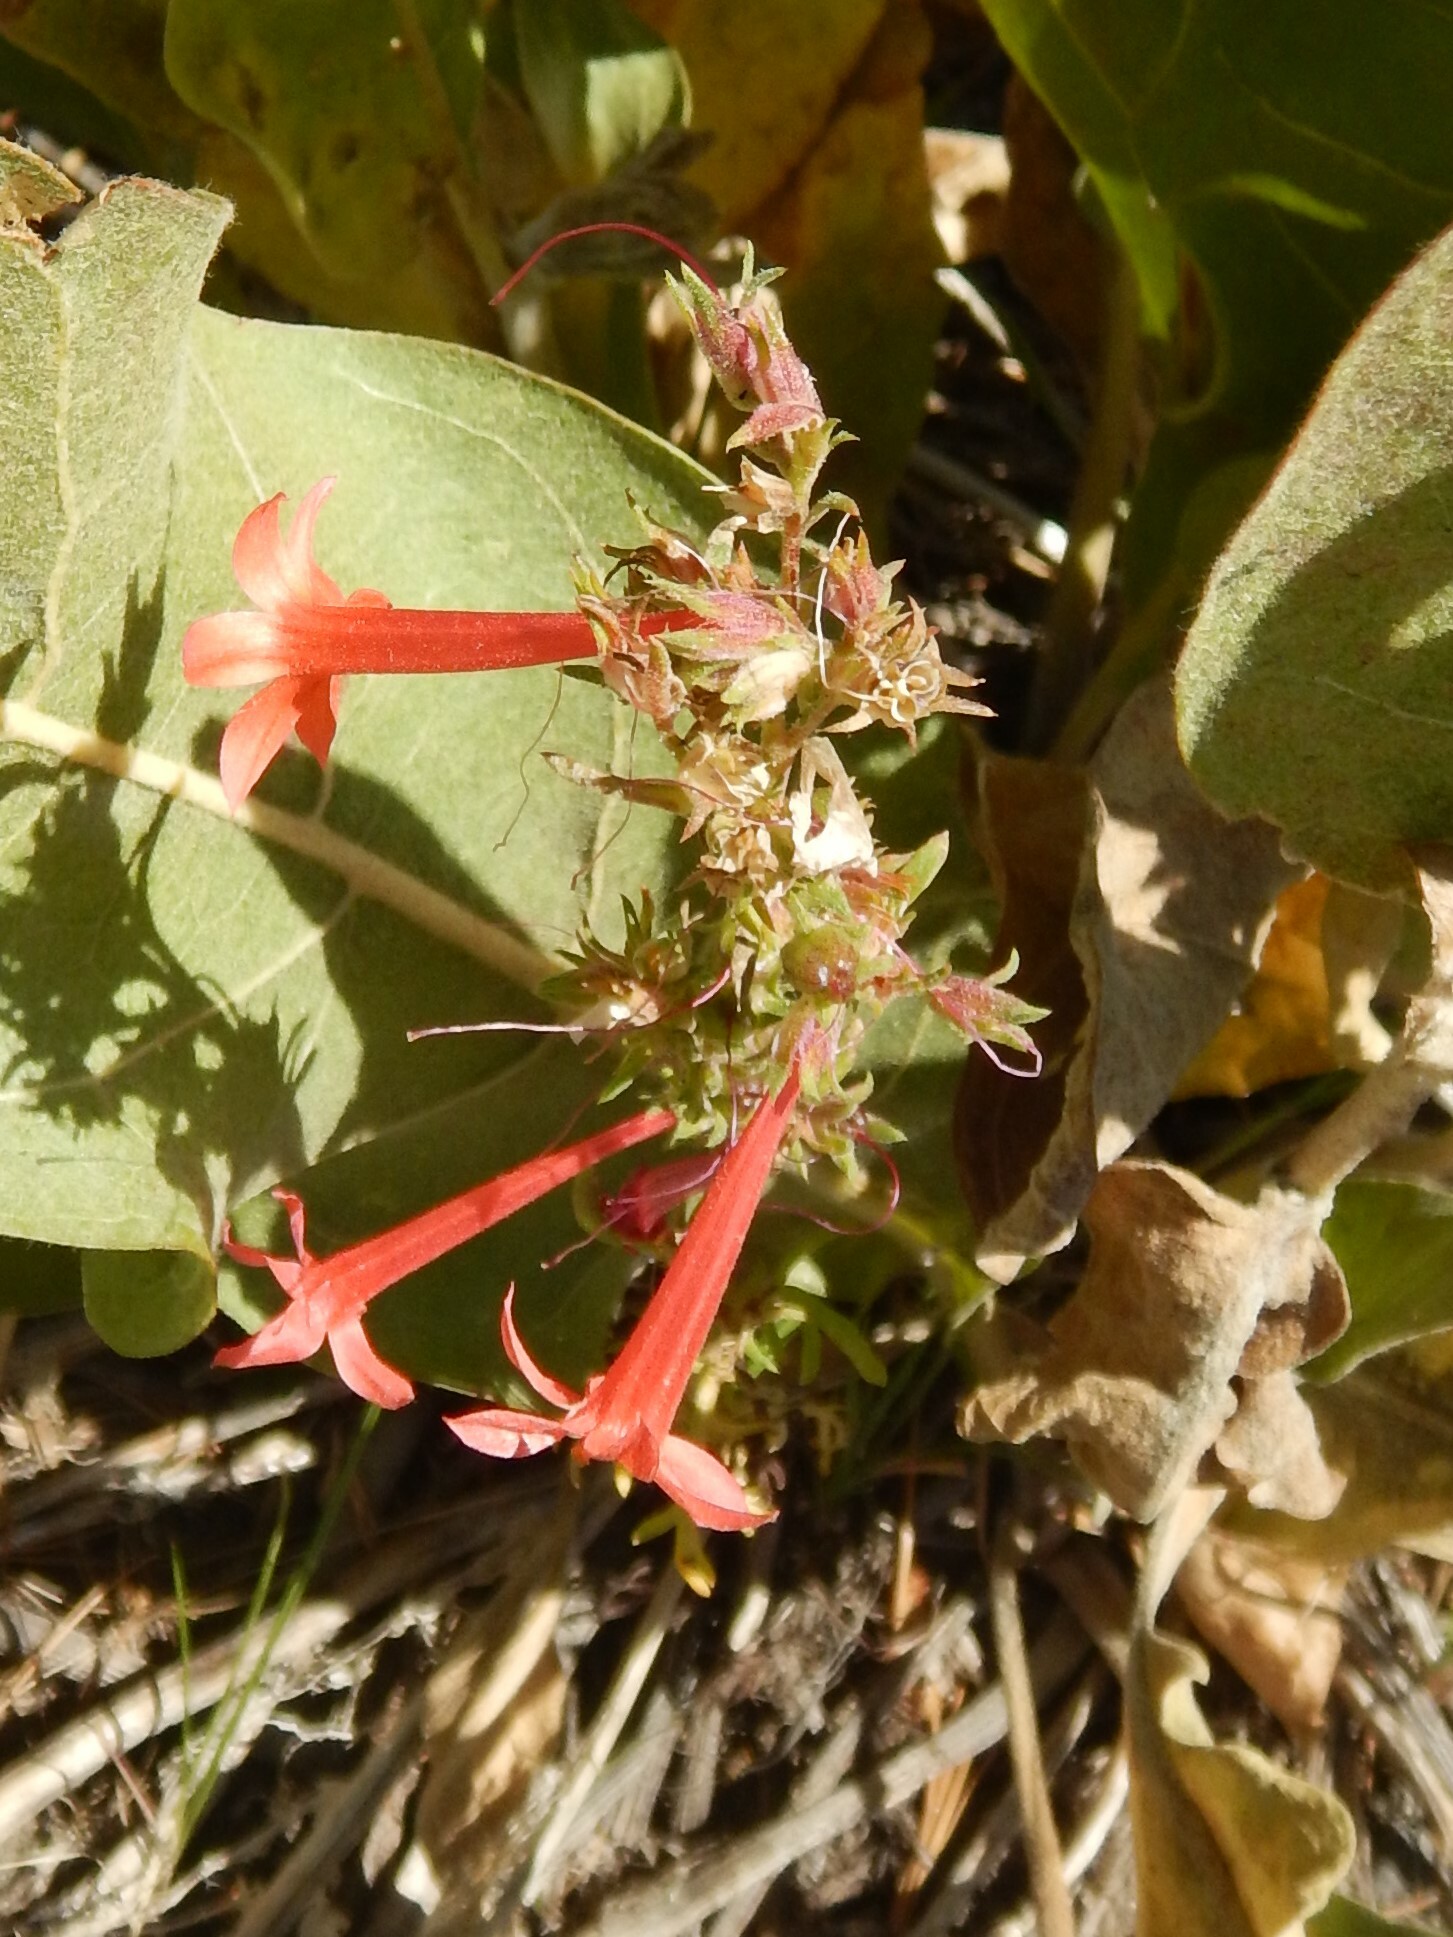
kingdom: Plantae
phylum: Tracheophyta
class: Magnoliopsida
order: Ericales
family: Polemoniaceae
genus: Ipomopsis
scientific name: Ipomopsis aggregata
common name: Scarlet gilia
